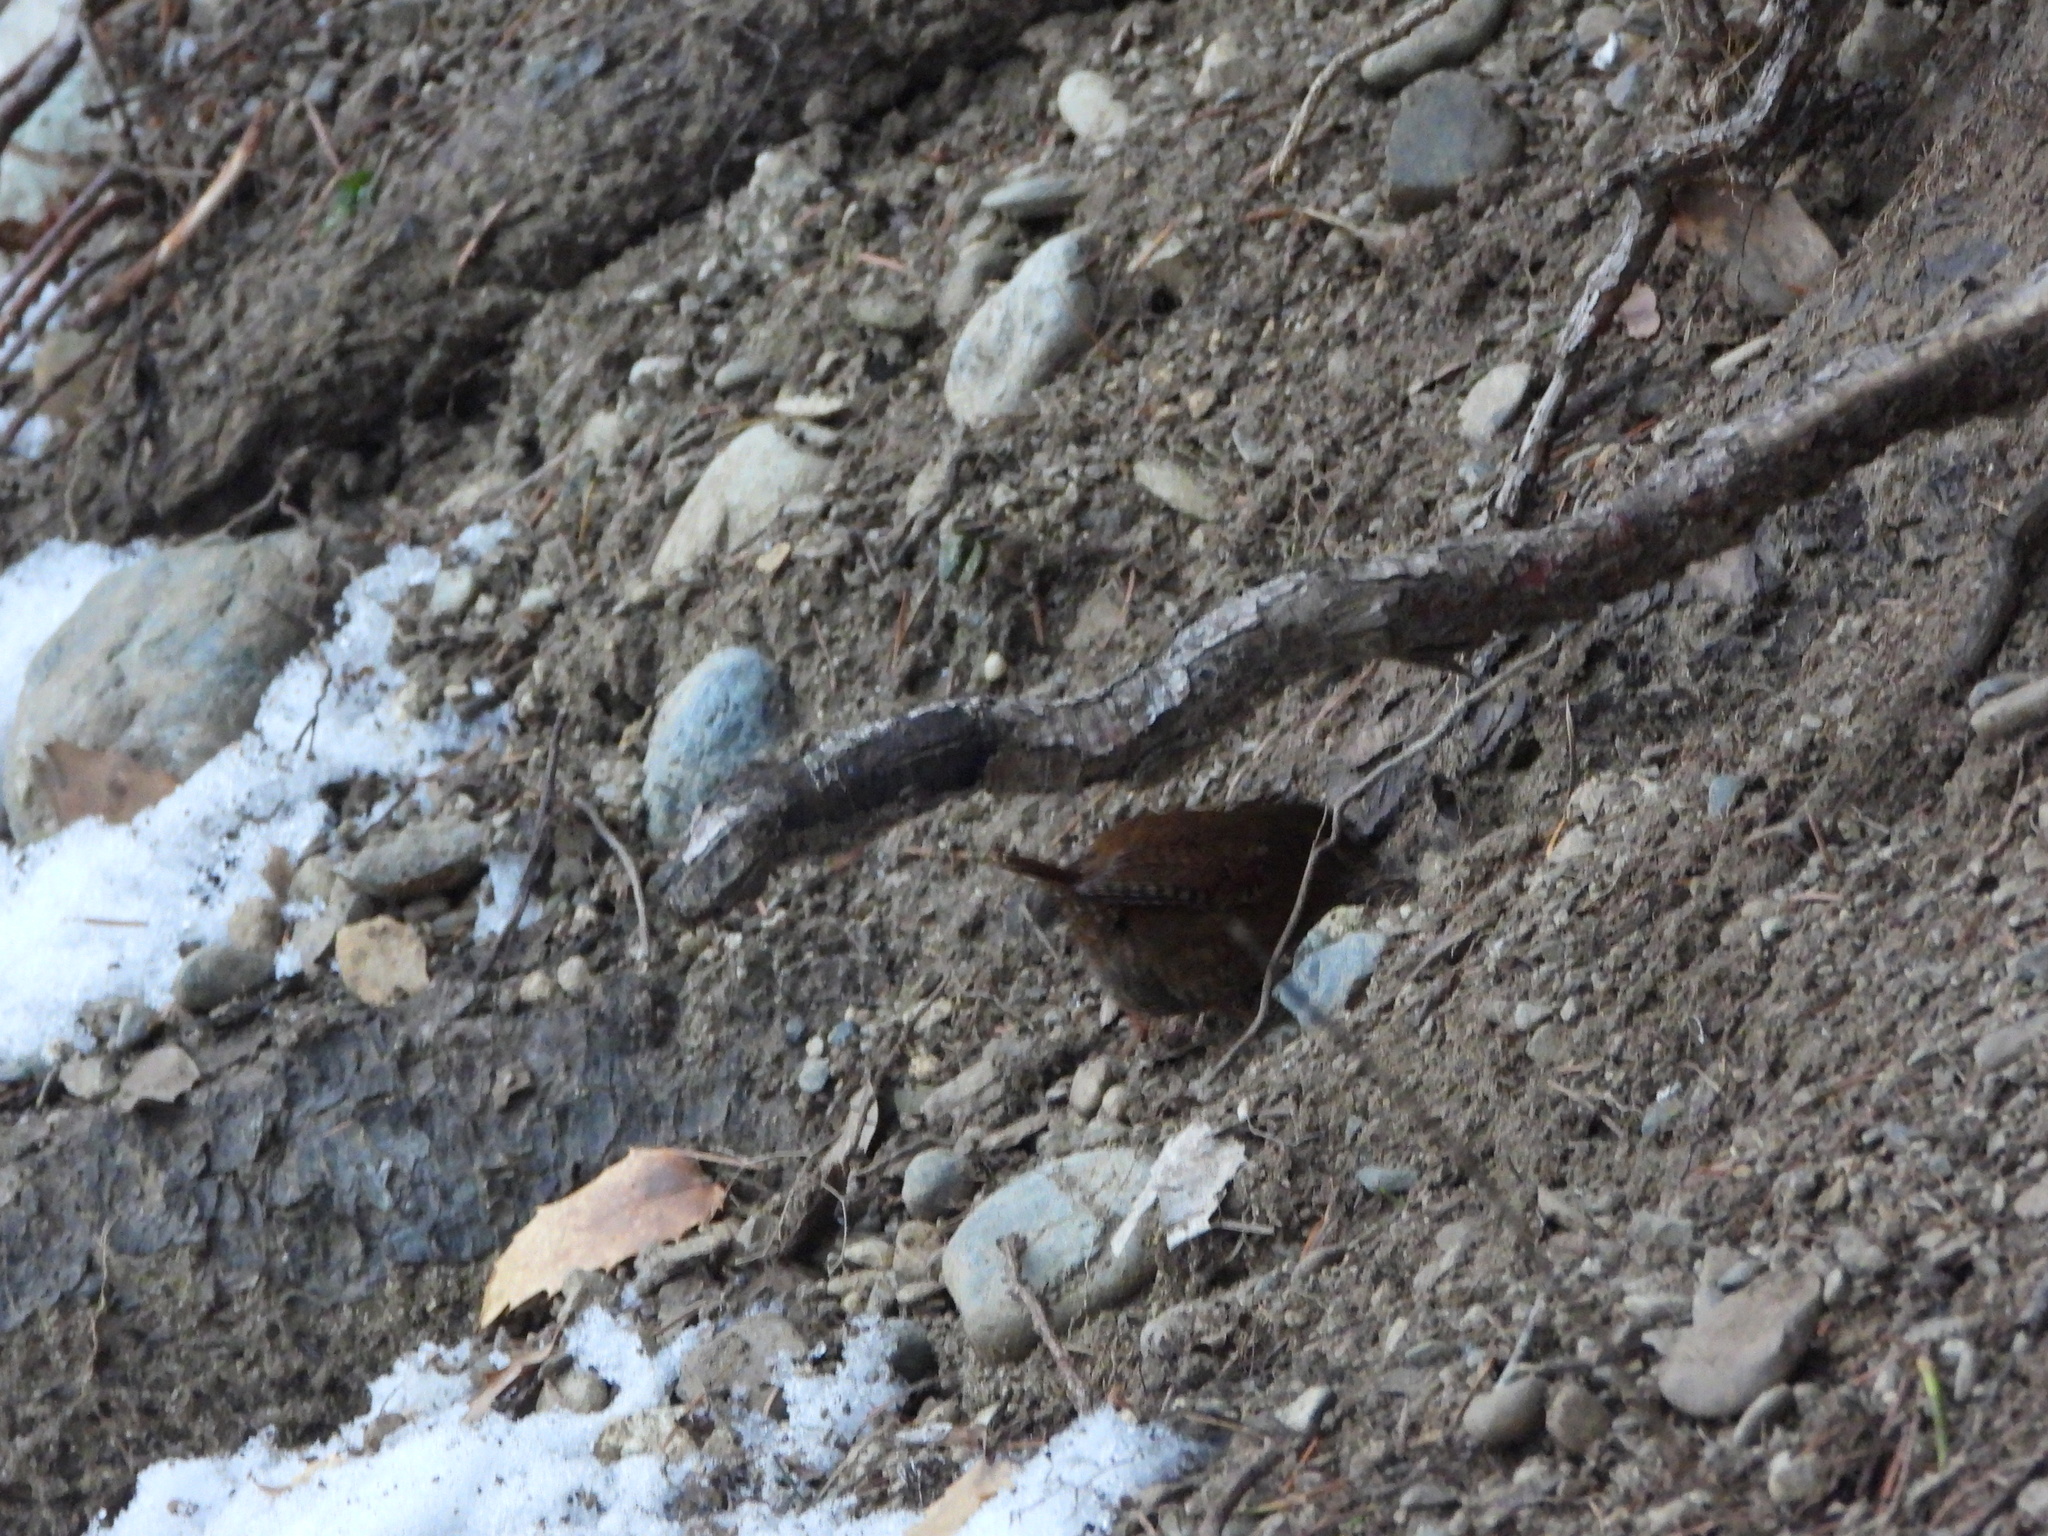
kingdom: Animalia
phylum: Chordata
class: Aves
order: Passeriformes
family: Troglodytidae
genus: Troglodytes
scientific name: Troglodytes pacificus
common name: Pacific wren
